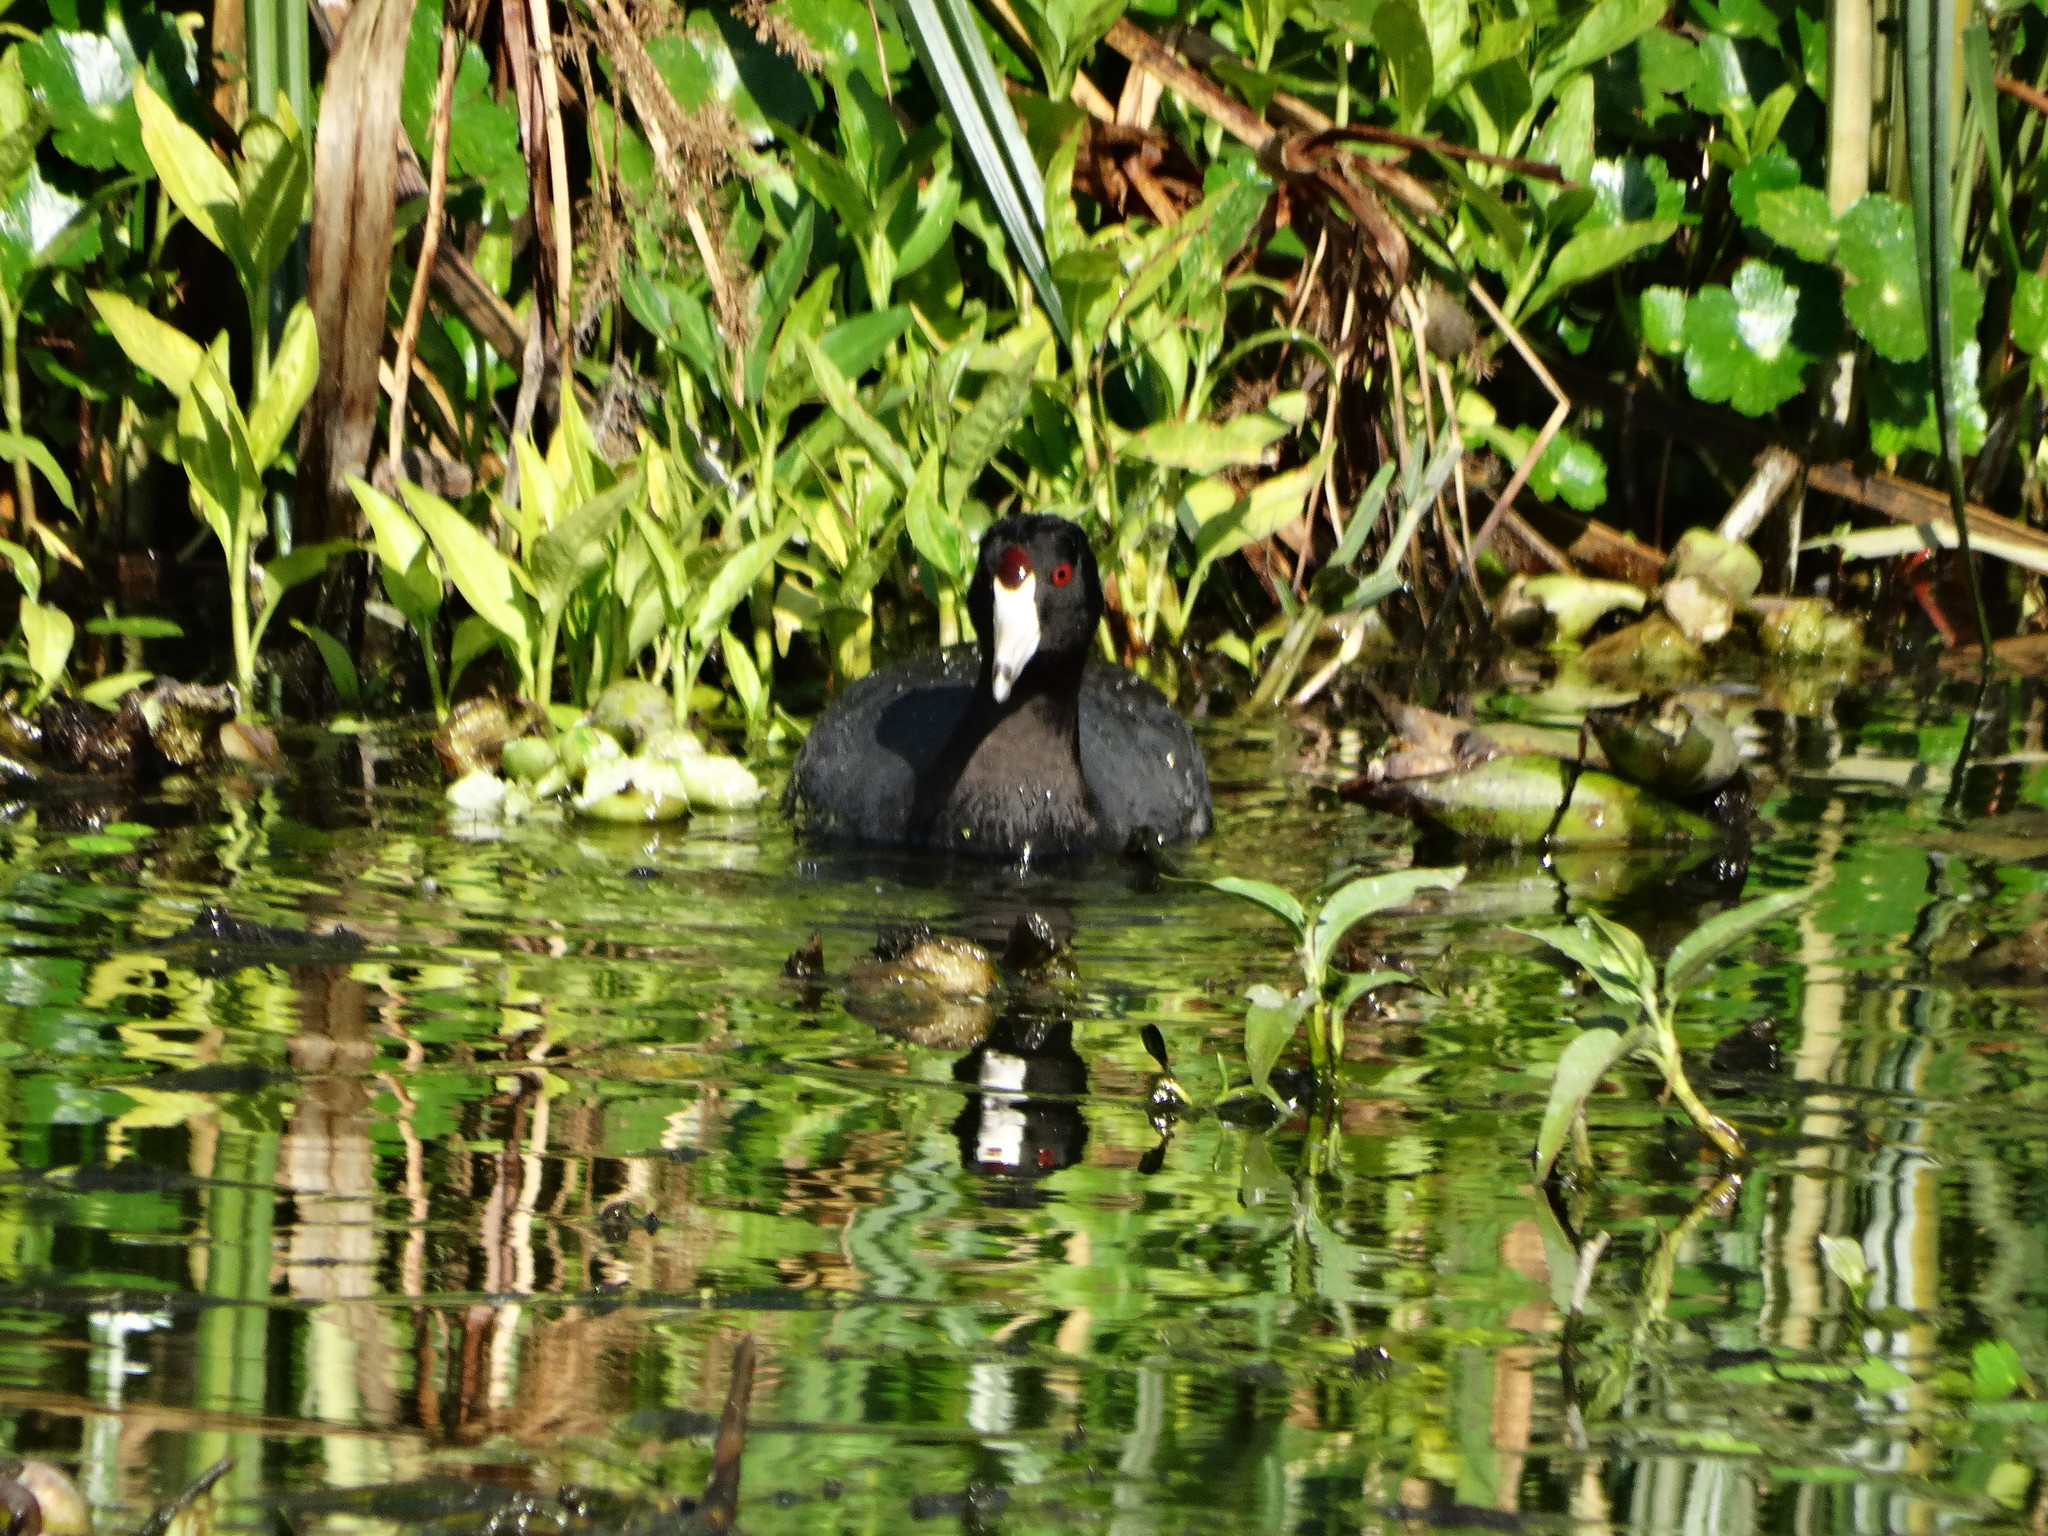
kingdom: Animalia
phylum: Chordata
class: Aves
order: Gruiformes
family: Rallidae
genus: Fulica
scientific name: Fulica americana
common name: American coot
